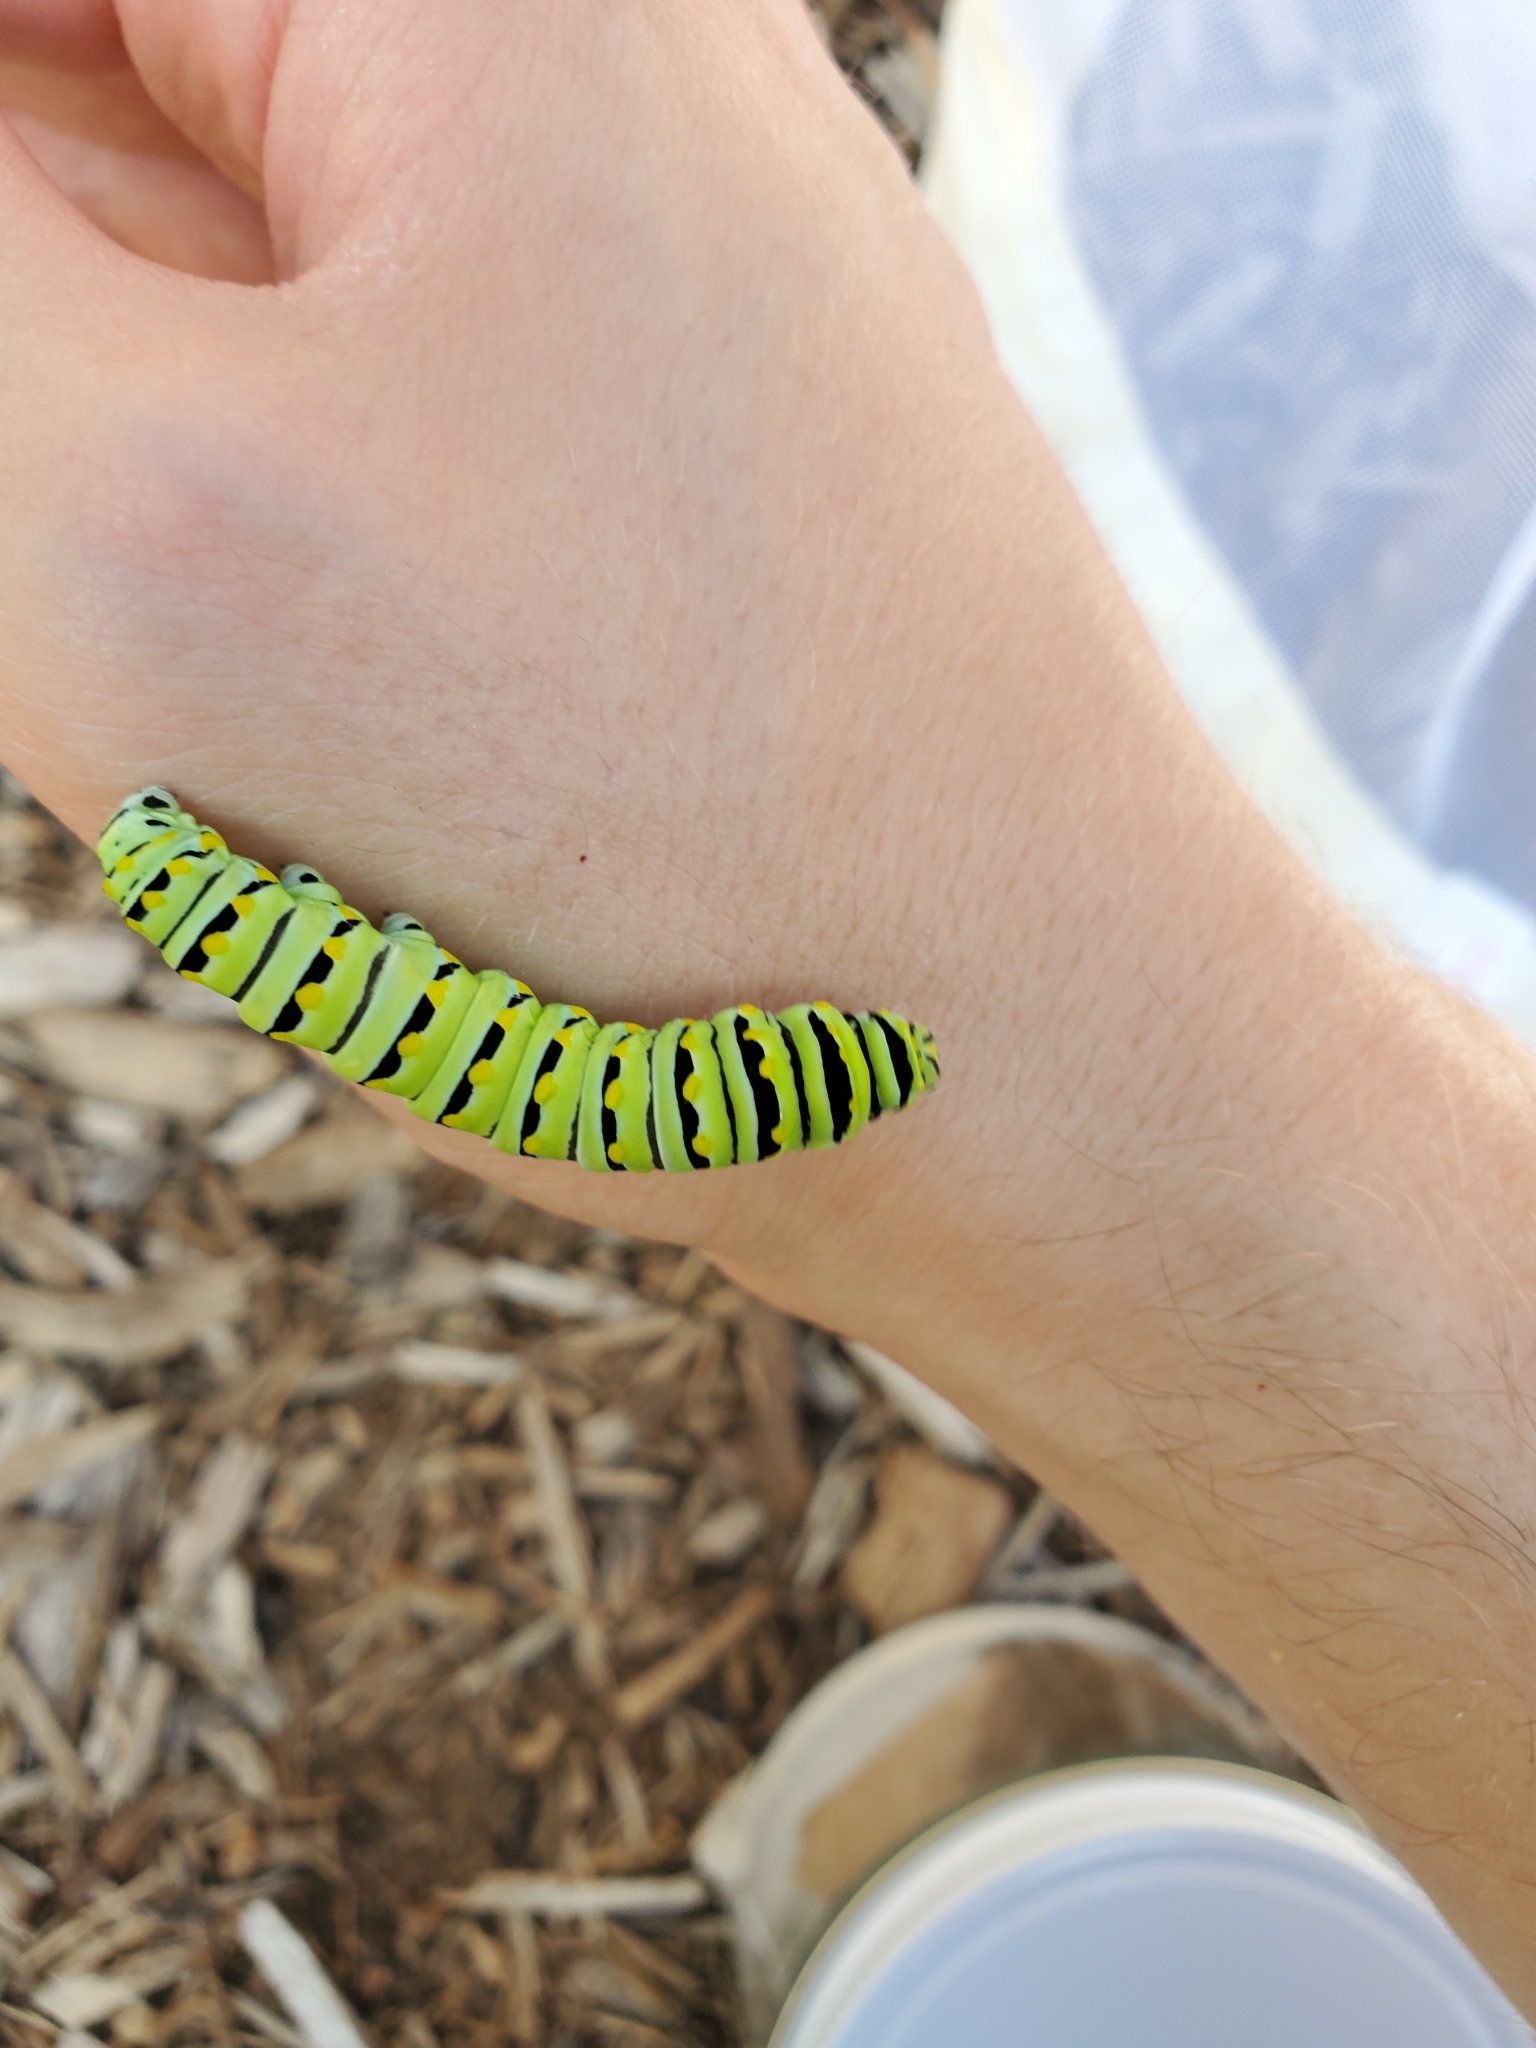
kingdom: Animalia
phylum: Arthropoda
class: Insecta
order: Lepidoptera
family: Papilionidae
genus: Papilio
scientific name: Papilio polyxenes
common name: Black swallowtail
